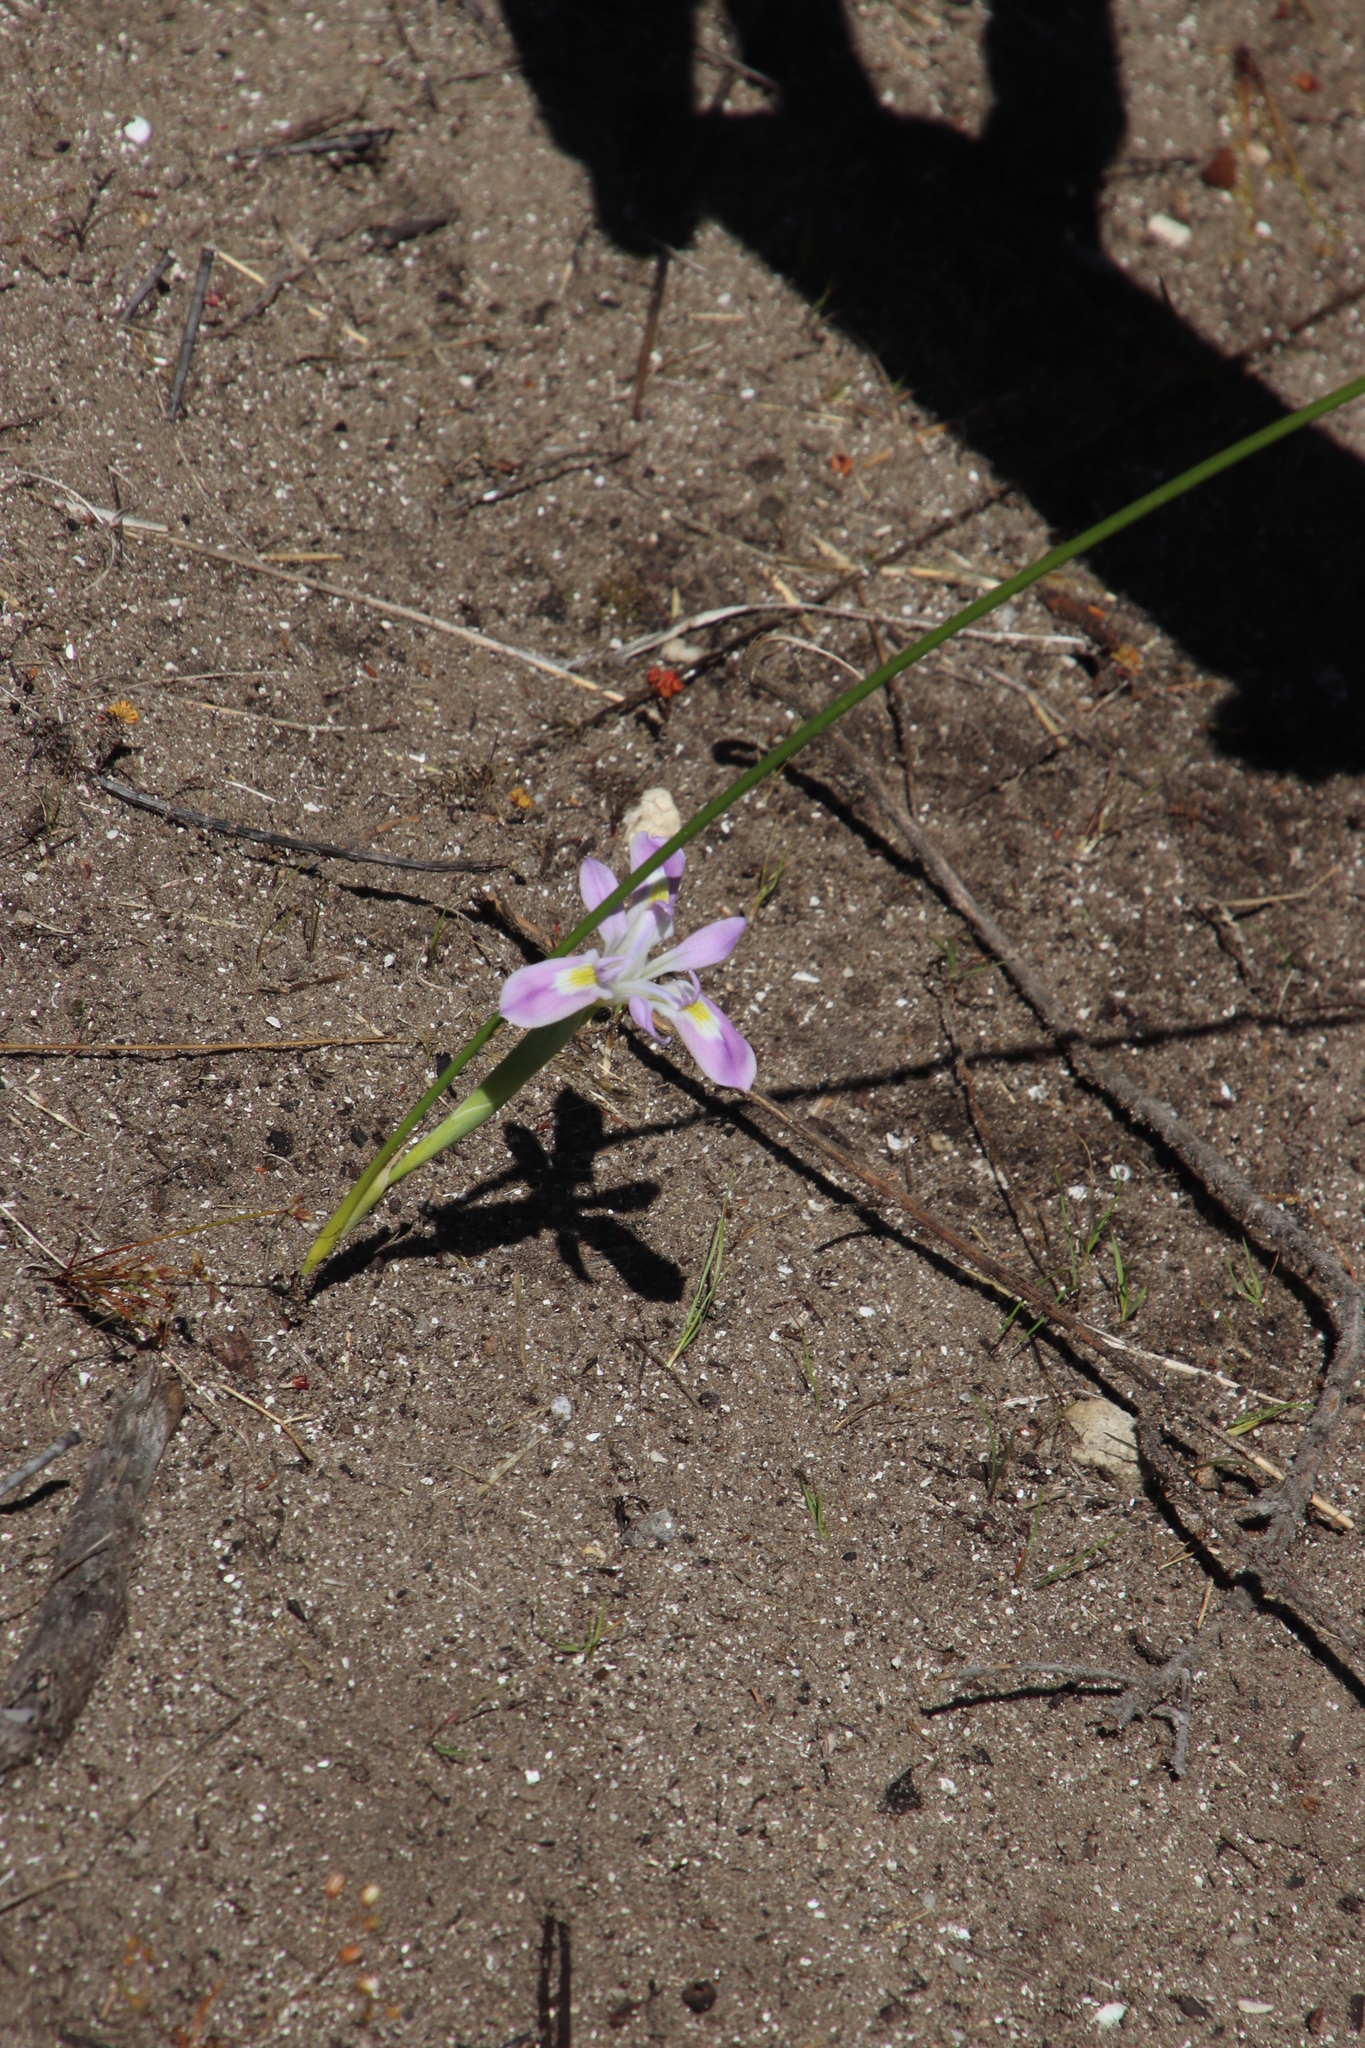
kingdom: Plantae
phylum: Tracheophyta
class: Liliopsida
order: Asparagales
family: Iridaceae
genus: Moraea
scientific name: Moraea fugax
